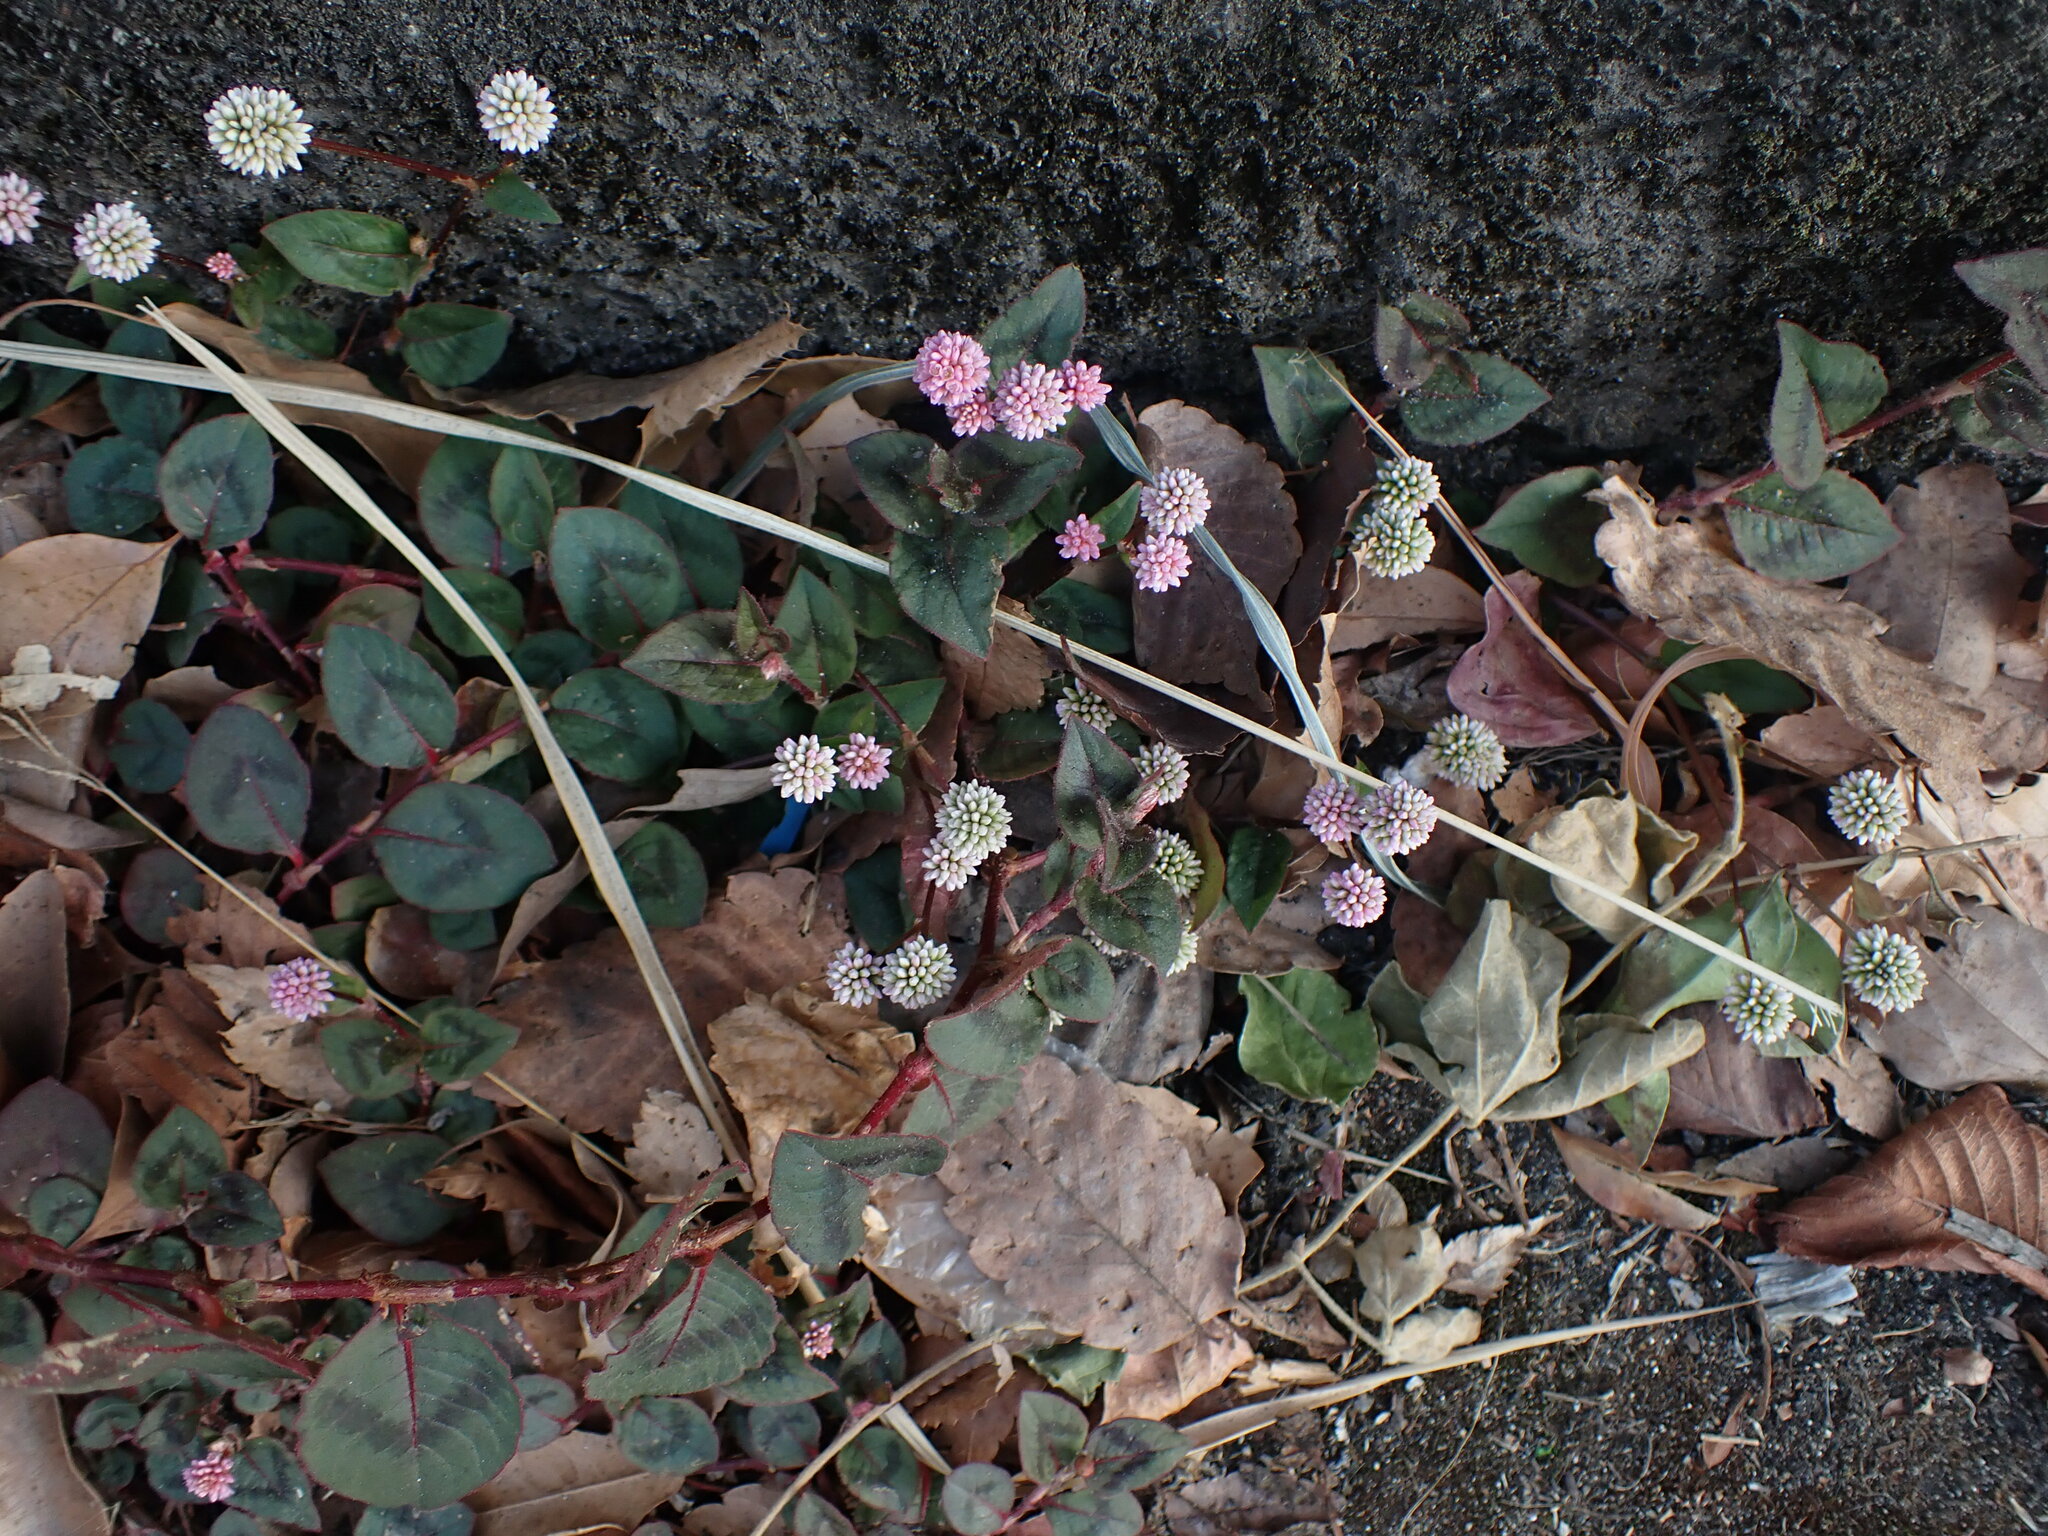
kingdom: Plantae
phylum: Tracheophyta
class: Magnoliopsida
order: Caryophyllales
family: Polygonaceae
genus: Persicaria
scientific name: Persicaria capitata
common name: Pinkhead smartweed
